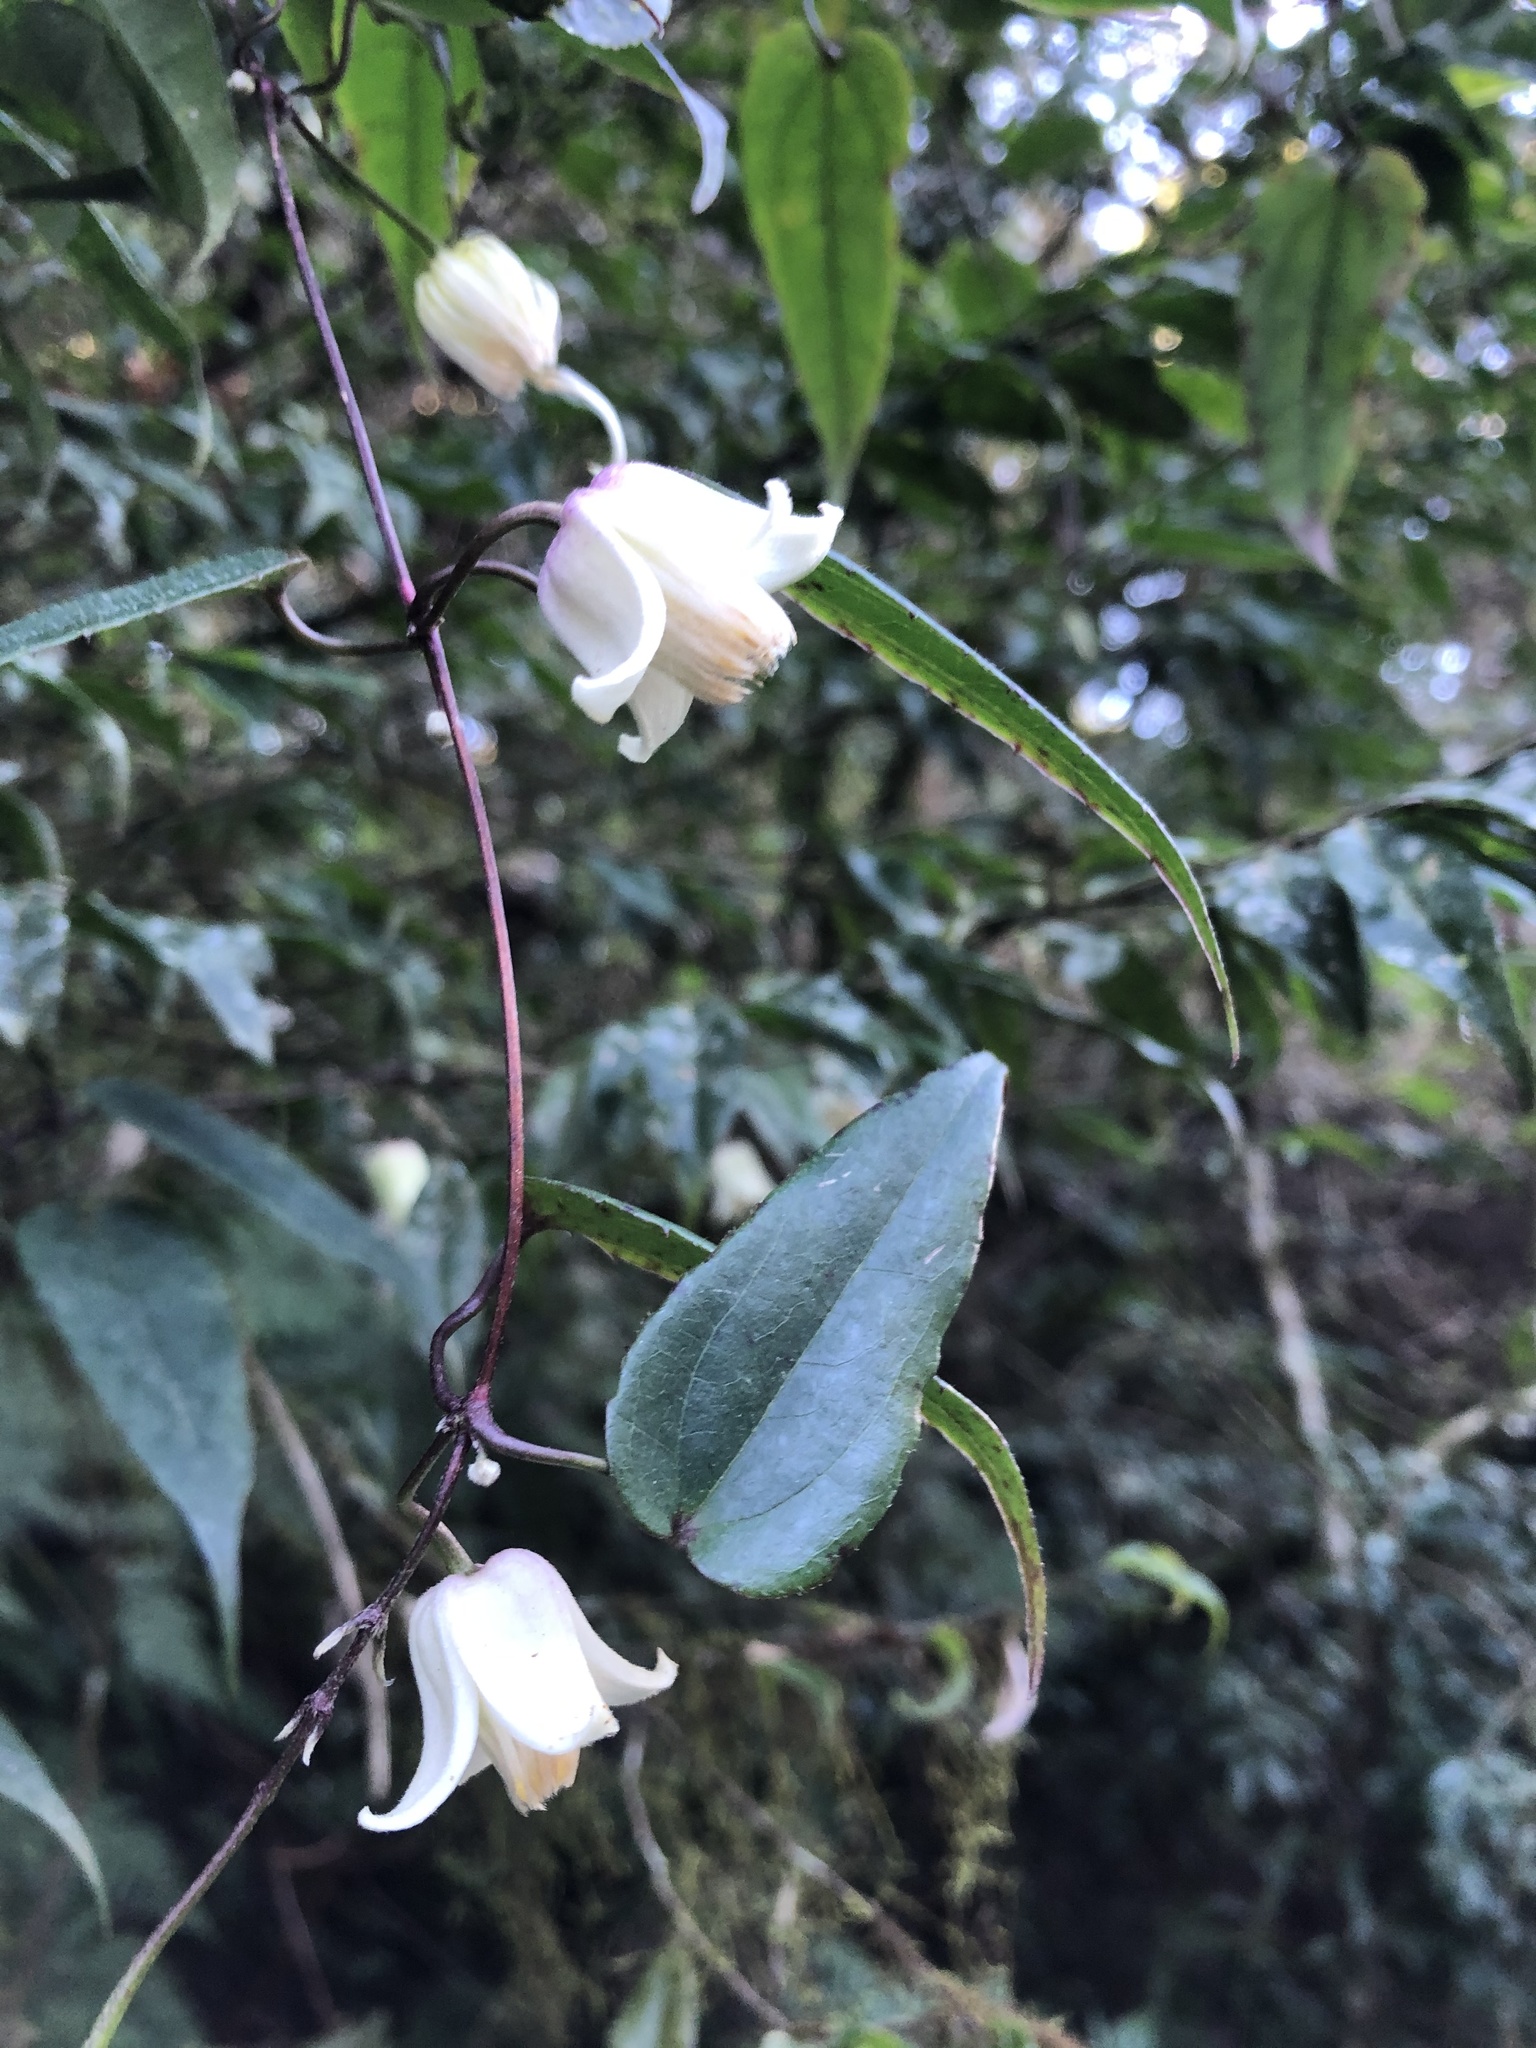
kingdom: Plantae
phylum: Tracheophyta
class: Magnoliopsida
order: Ranunculales
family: Ranunculaceae
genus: Clematis
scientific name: Clematis
